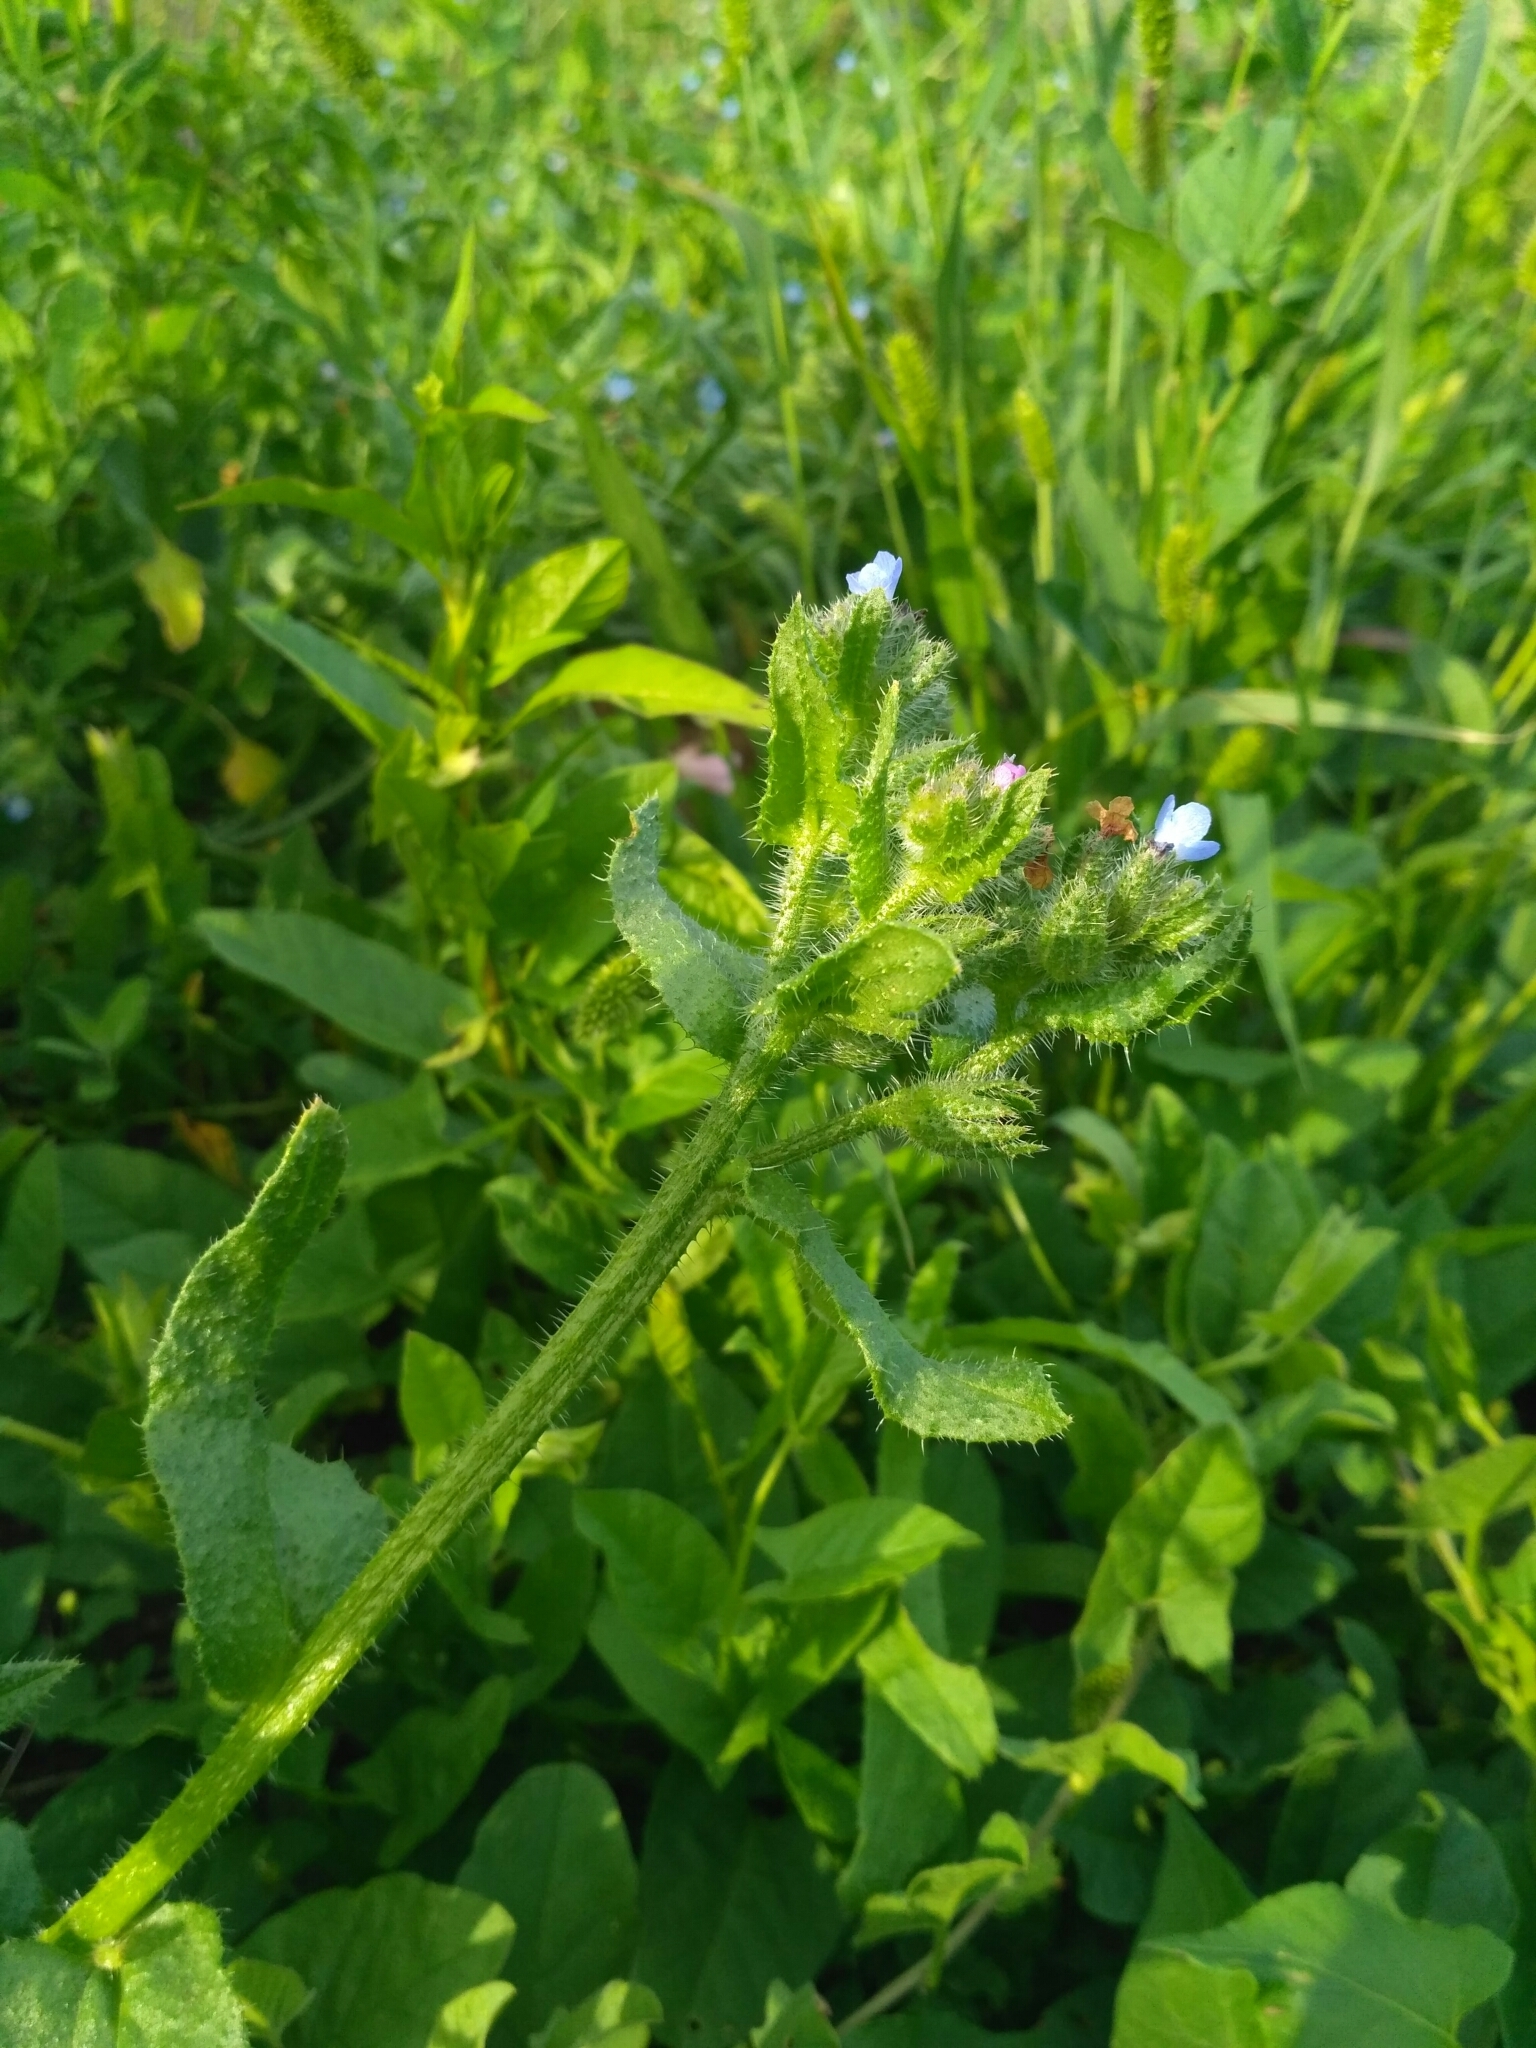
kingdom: Plantae
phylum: Tracheophyta
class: Magnoliopsida
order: Boraginales
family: Boraginaceae
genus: Lycopsis
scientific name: Lycopsis arvensis
